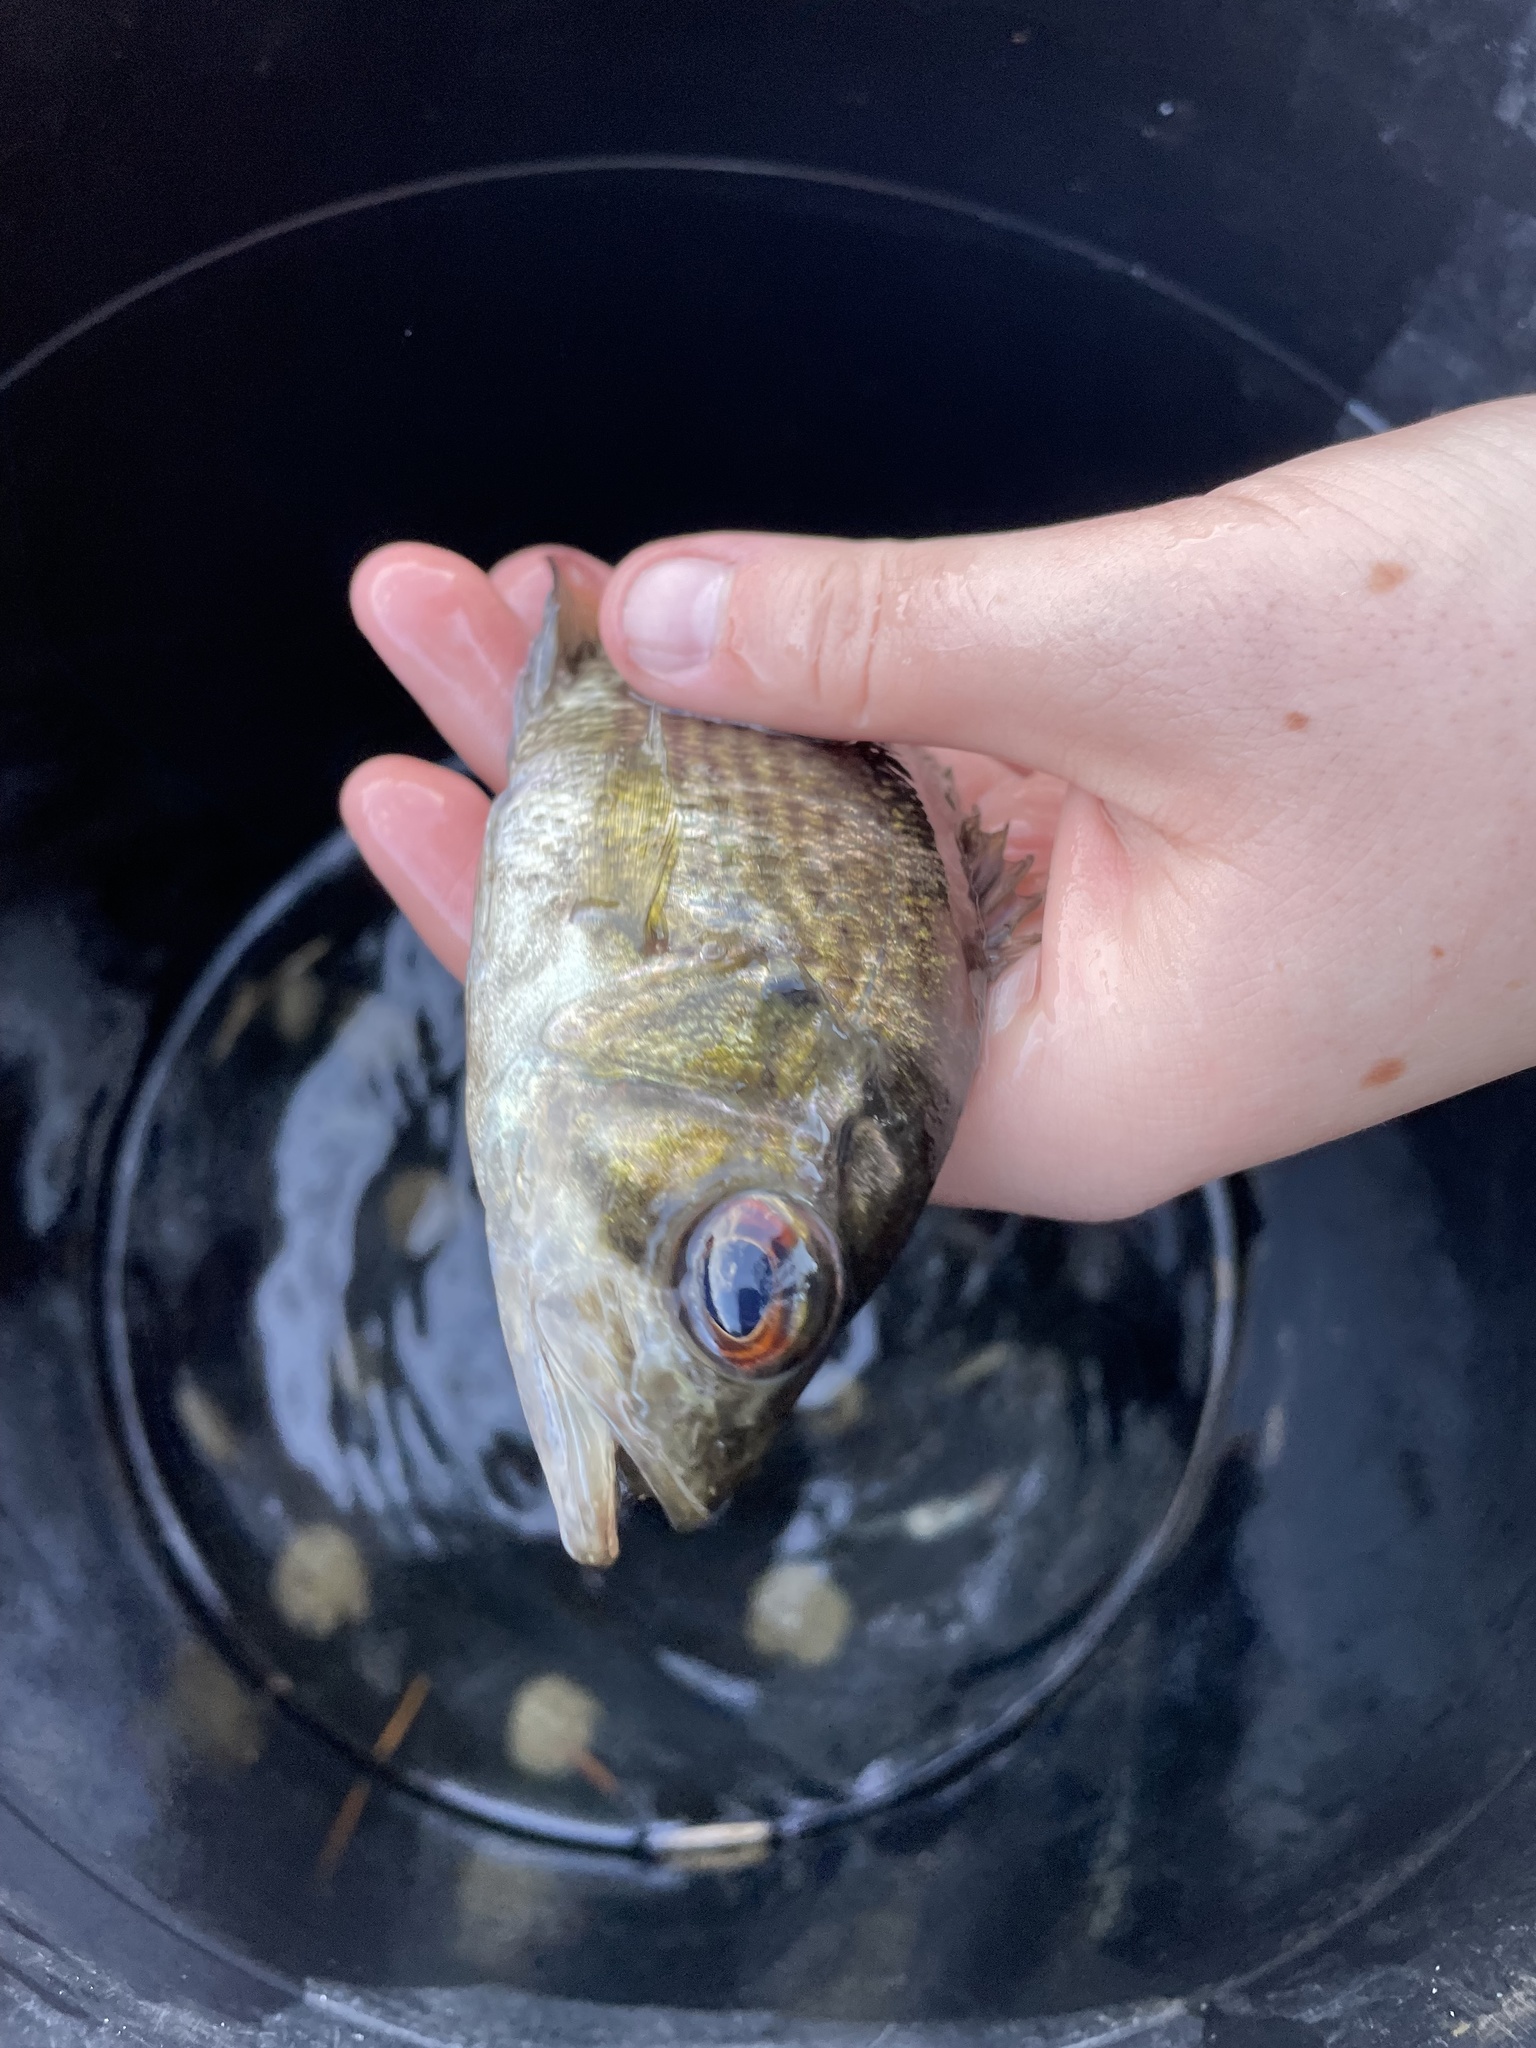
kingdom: Animalia
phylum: Chordata
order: Perciformes
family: Centrarchidae
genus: Ambloplites
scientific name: Ambloplites rupestris
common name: Rock bass
